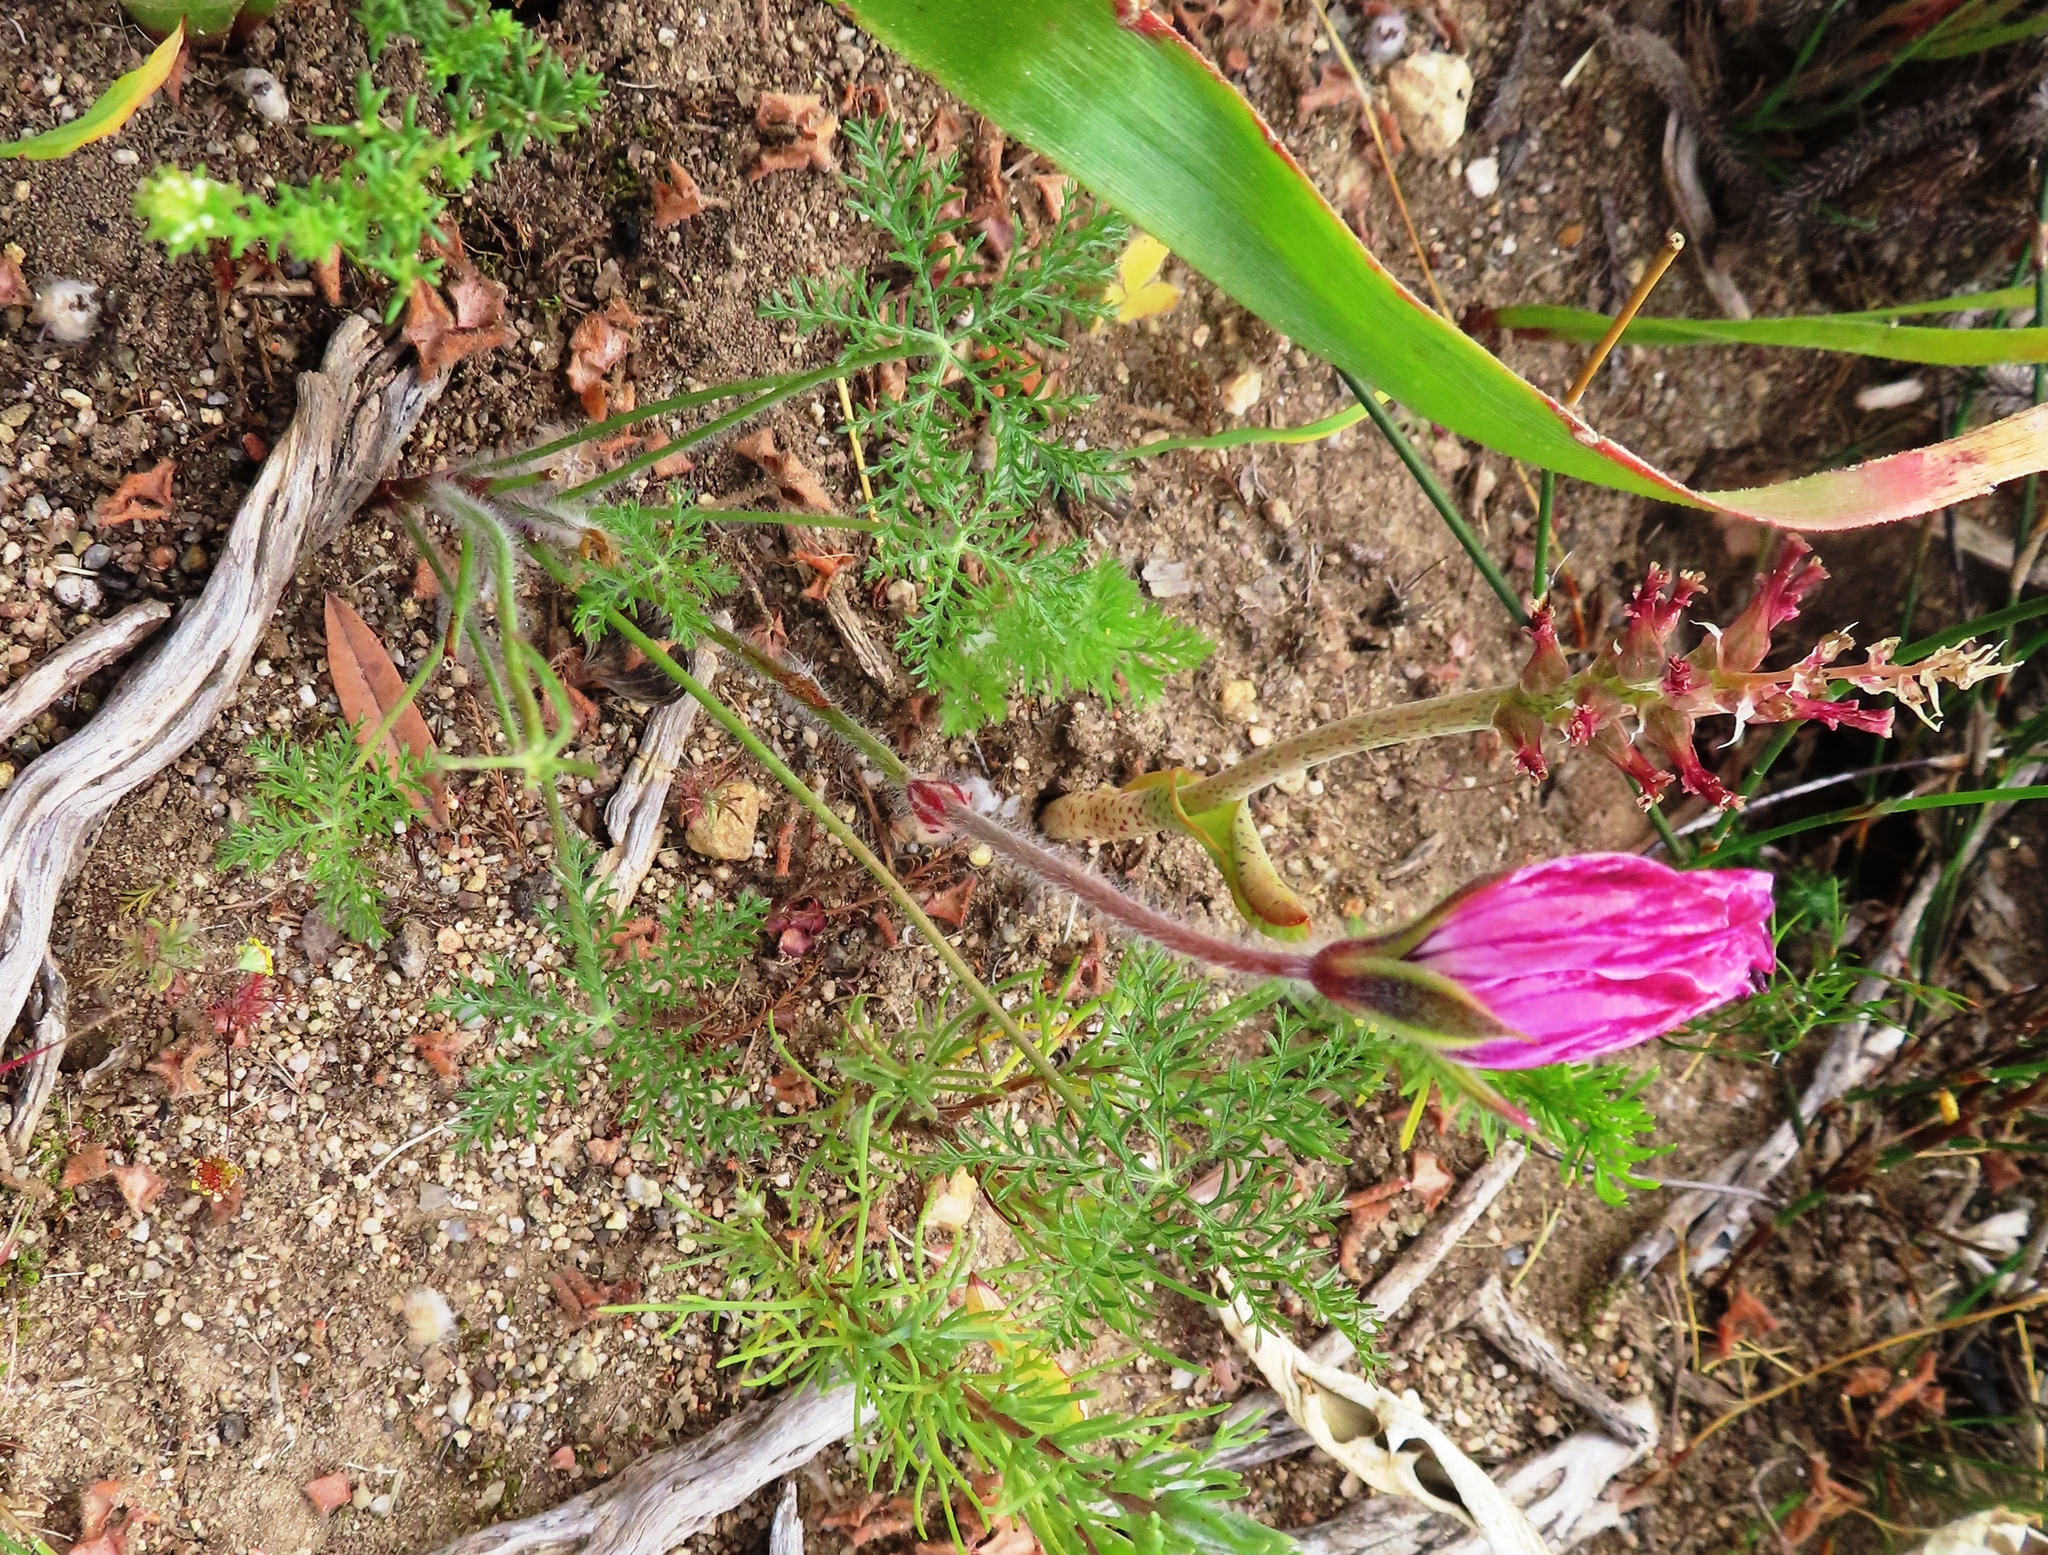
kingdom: Plantae
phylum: Tracheophyta
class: Magnoliopsida
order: Geraniales
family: Geraniaceae
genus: Monsonia
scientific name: Monsonia speciosa
